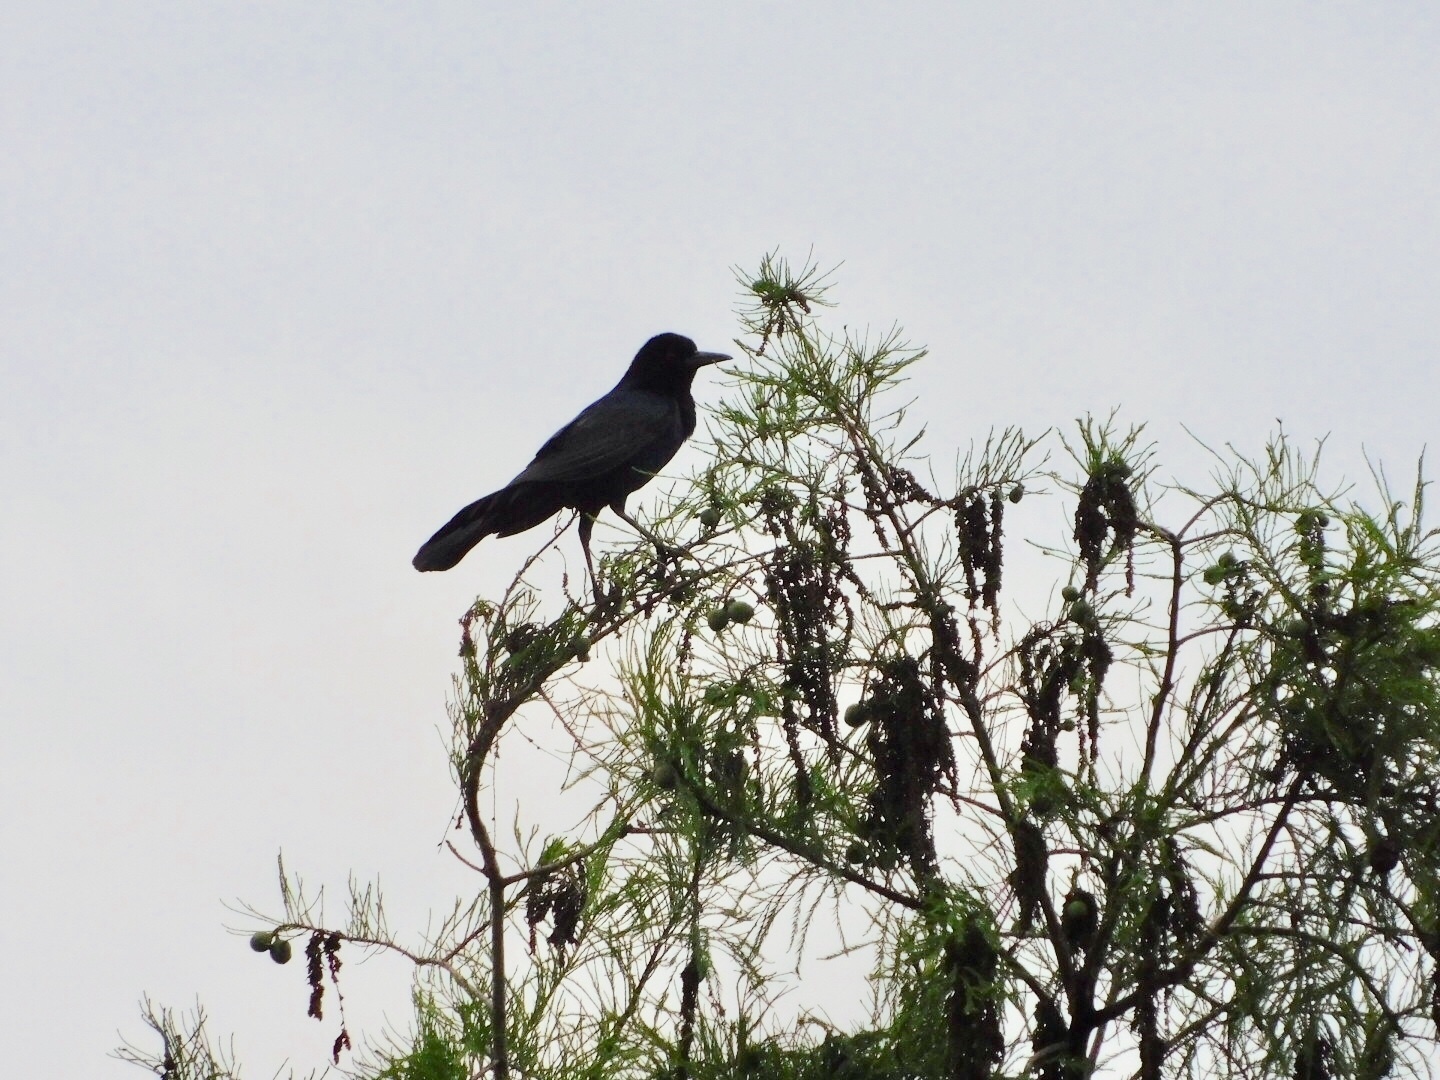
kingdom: Animalia
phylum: Chordata
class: Aves
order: Passeriformes
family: Icteridae
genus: Quiscalus
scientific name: Quiscalus major
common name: Boat-tailed grackle
